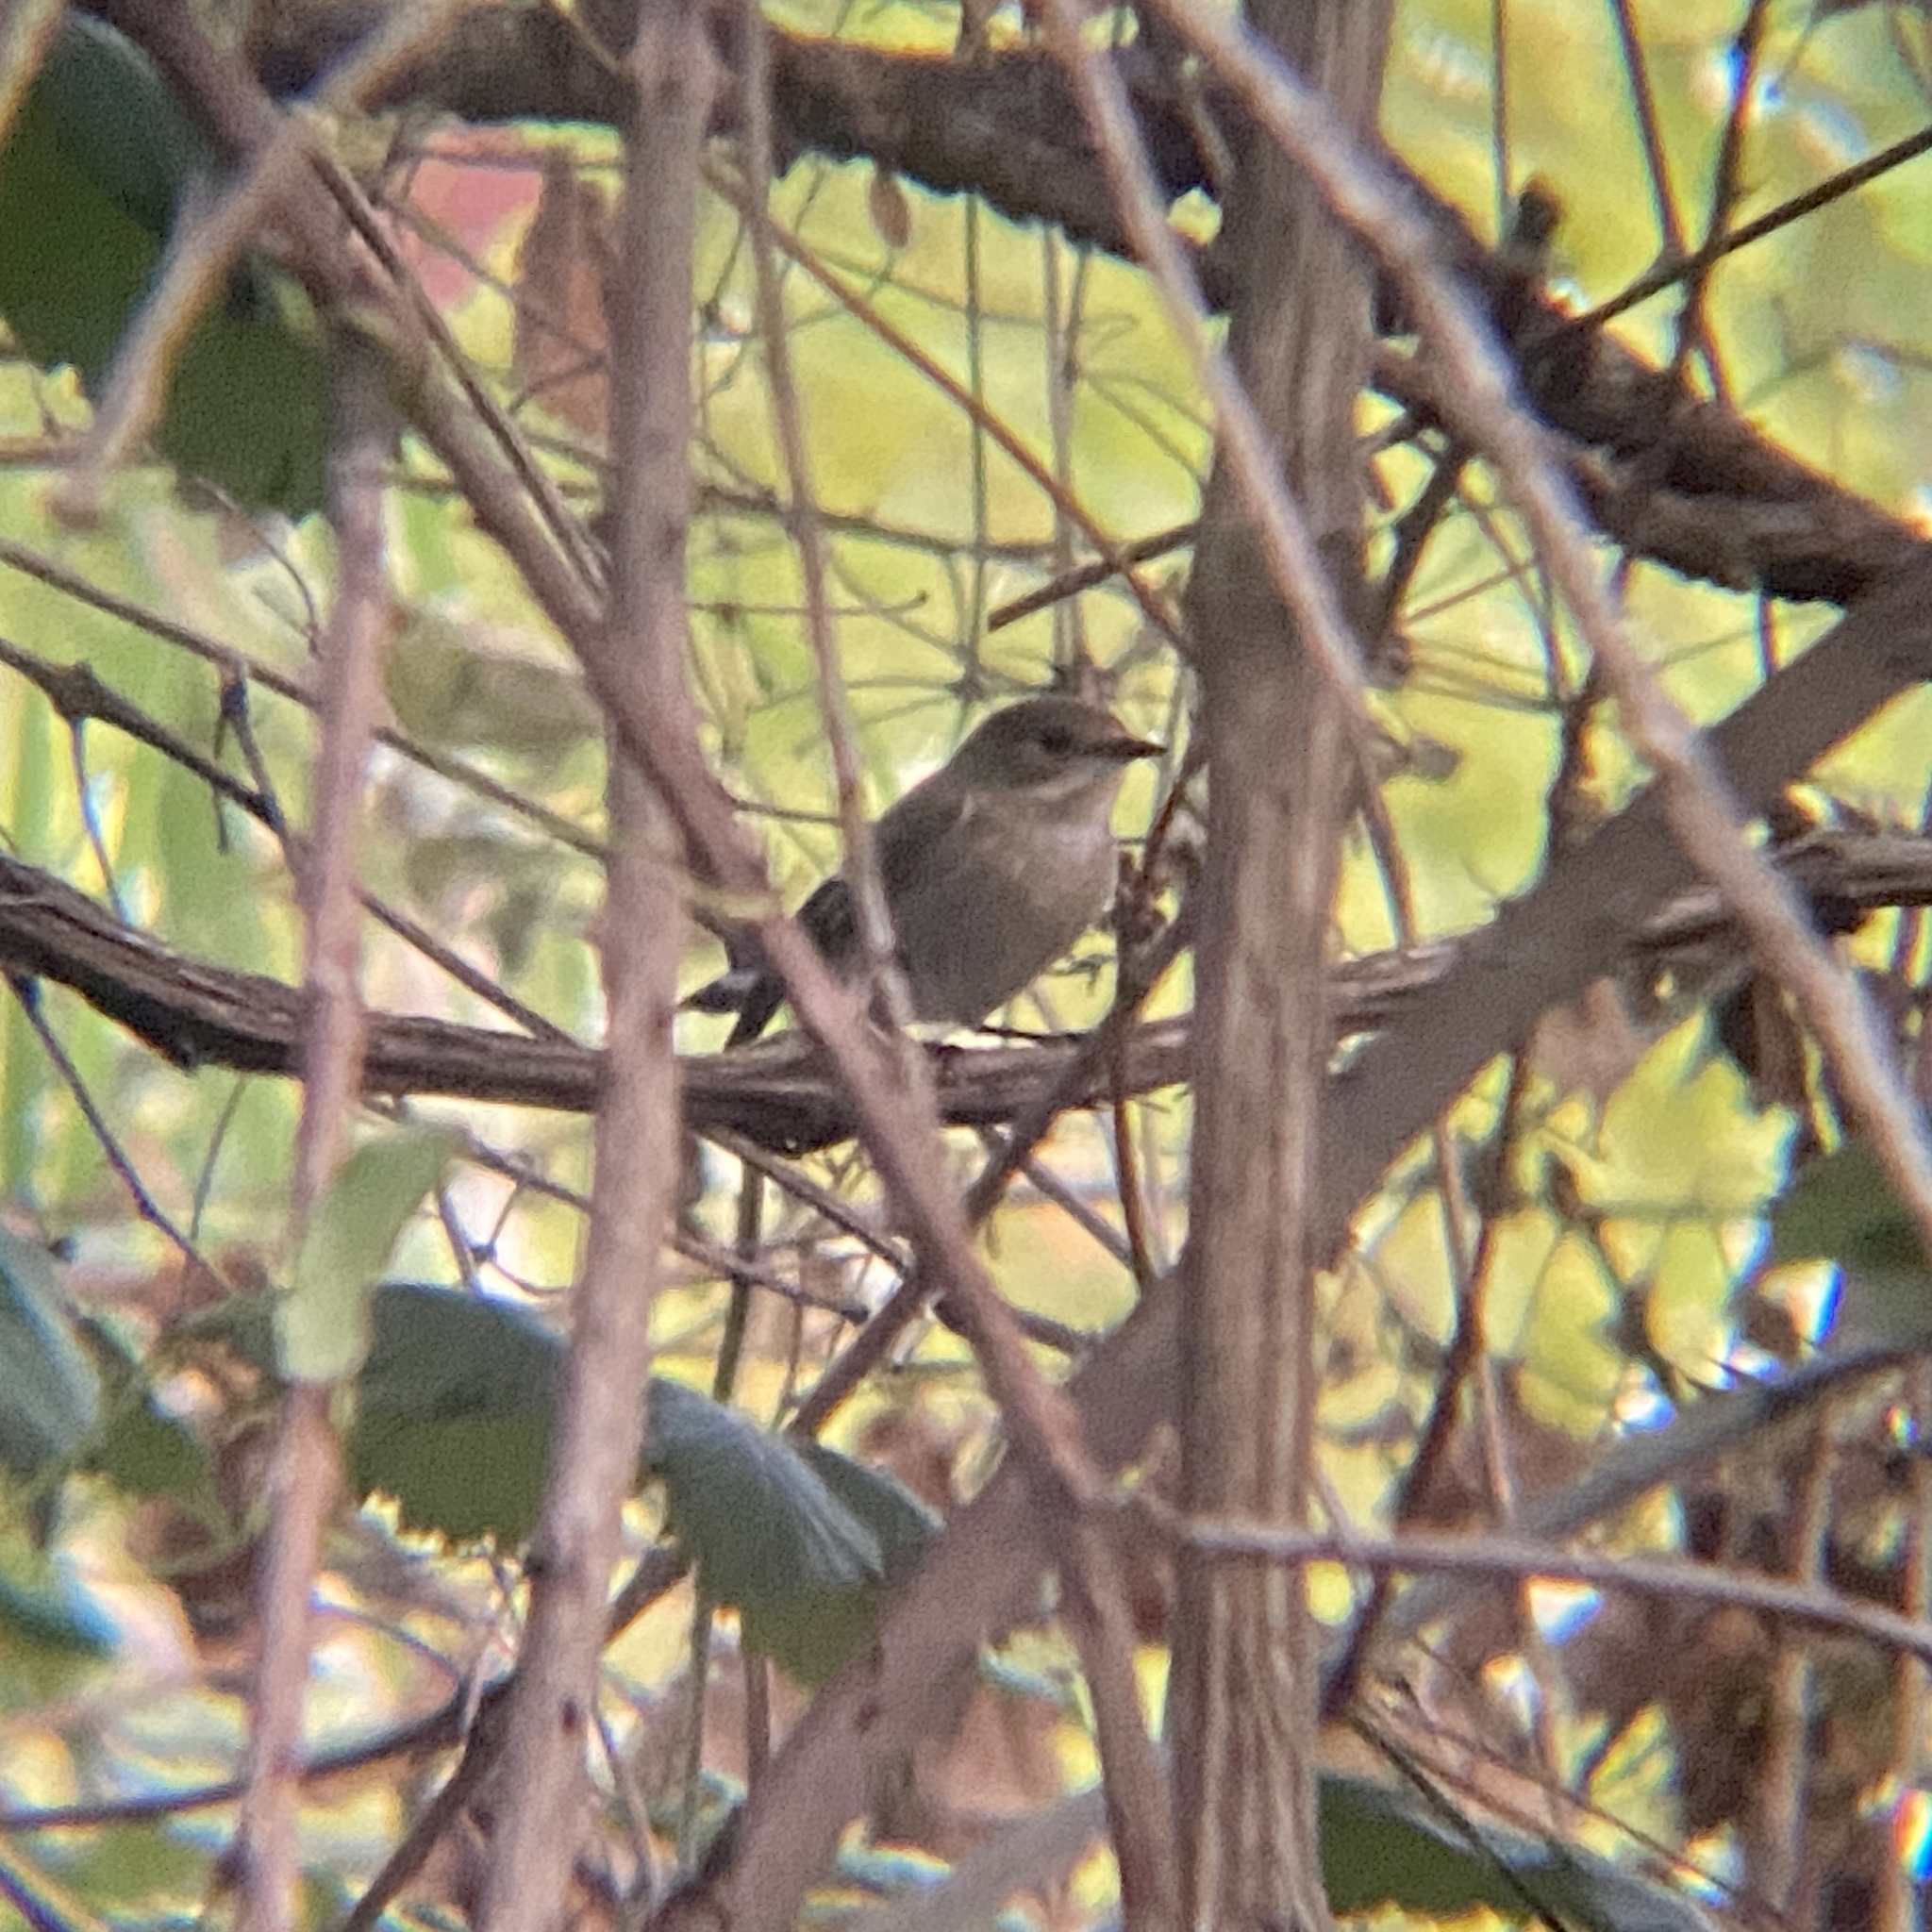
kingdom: Animalia
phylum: Chordata
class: Aves
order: Passeriformes
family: Muscicapidae
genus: Ficedula
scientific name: Ficedula hypoleuca
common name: European pied flycatcher
